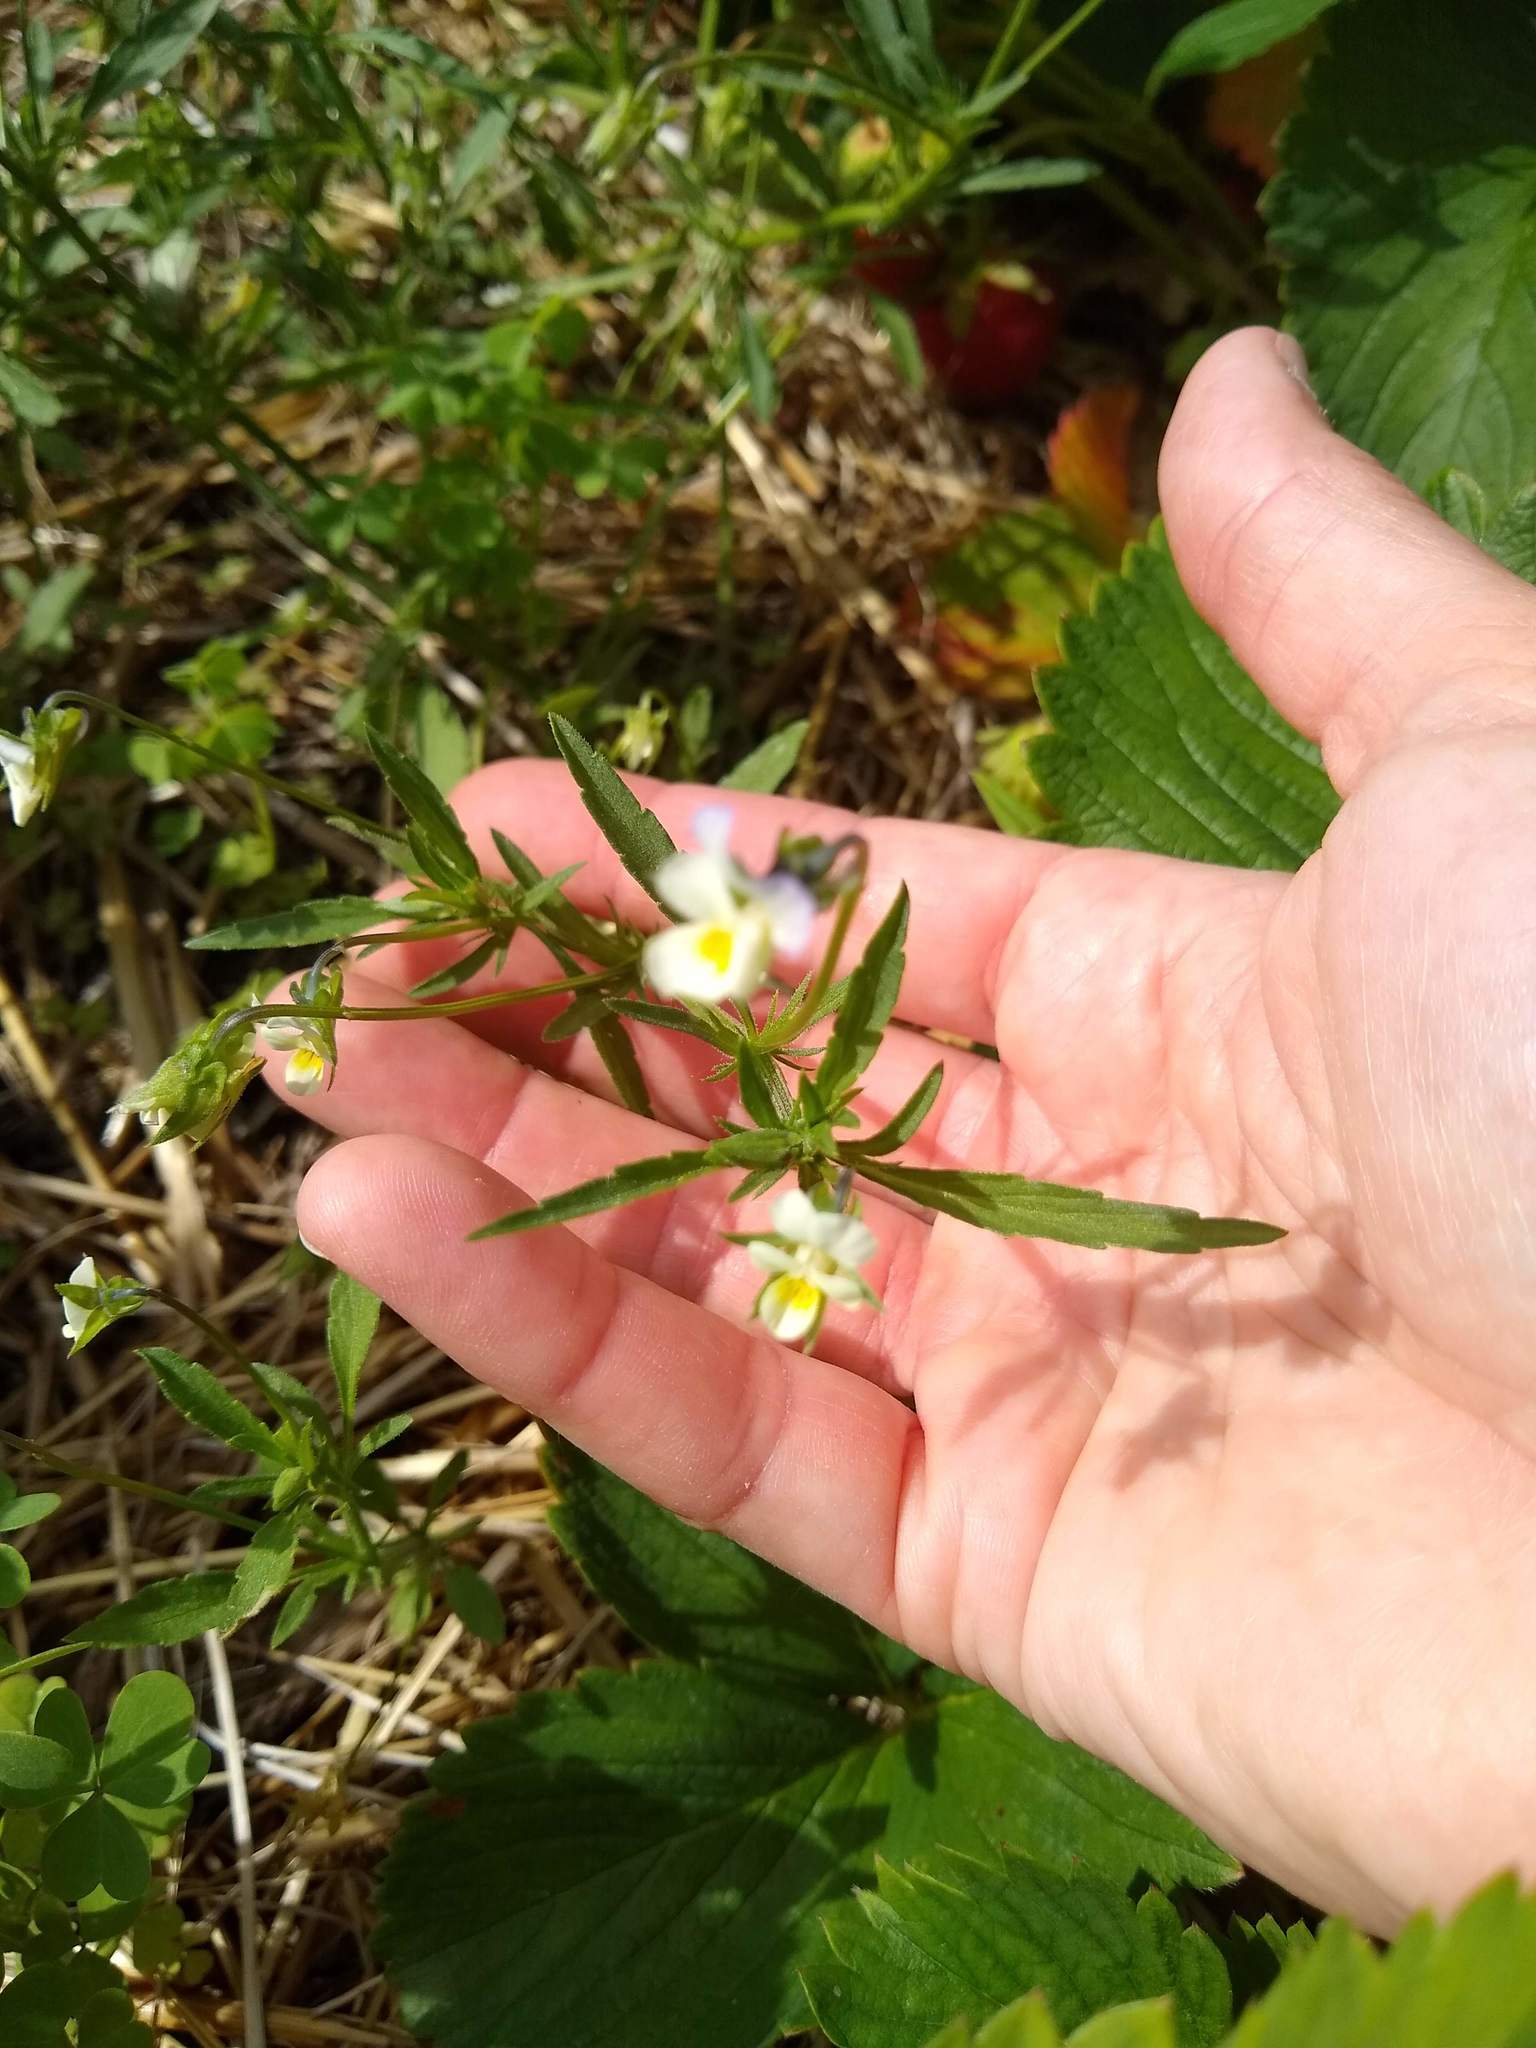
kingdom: Plantae
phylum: Tracheophyta
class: Magnoliopsida
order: Malpighiales
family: Violaceae
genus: Viola
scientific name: Viola arvensis
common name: Field pansy
